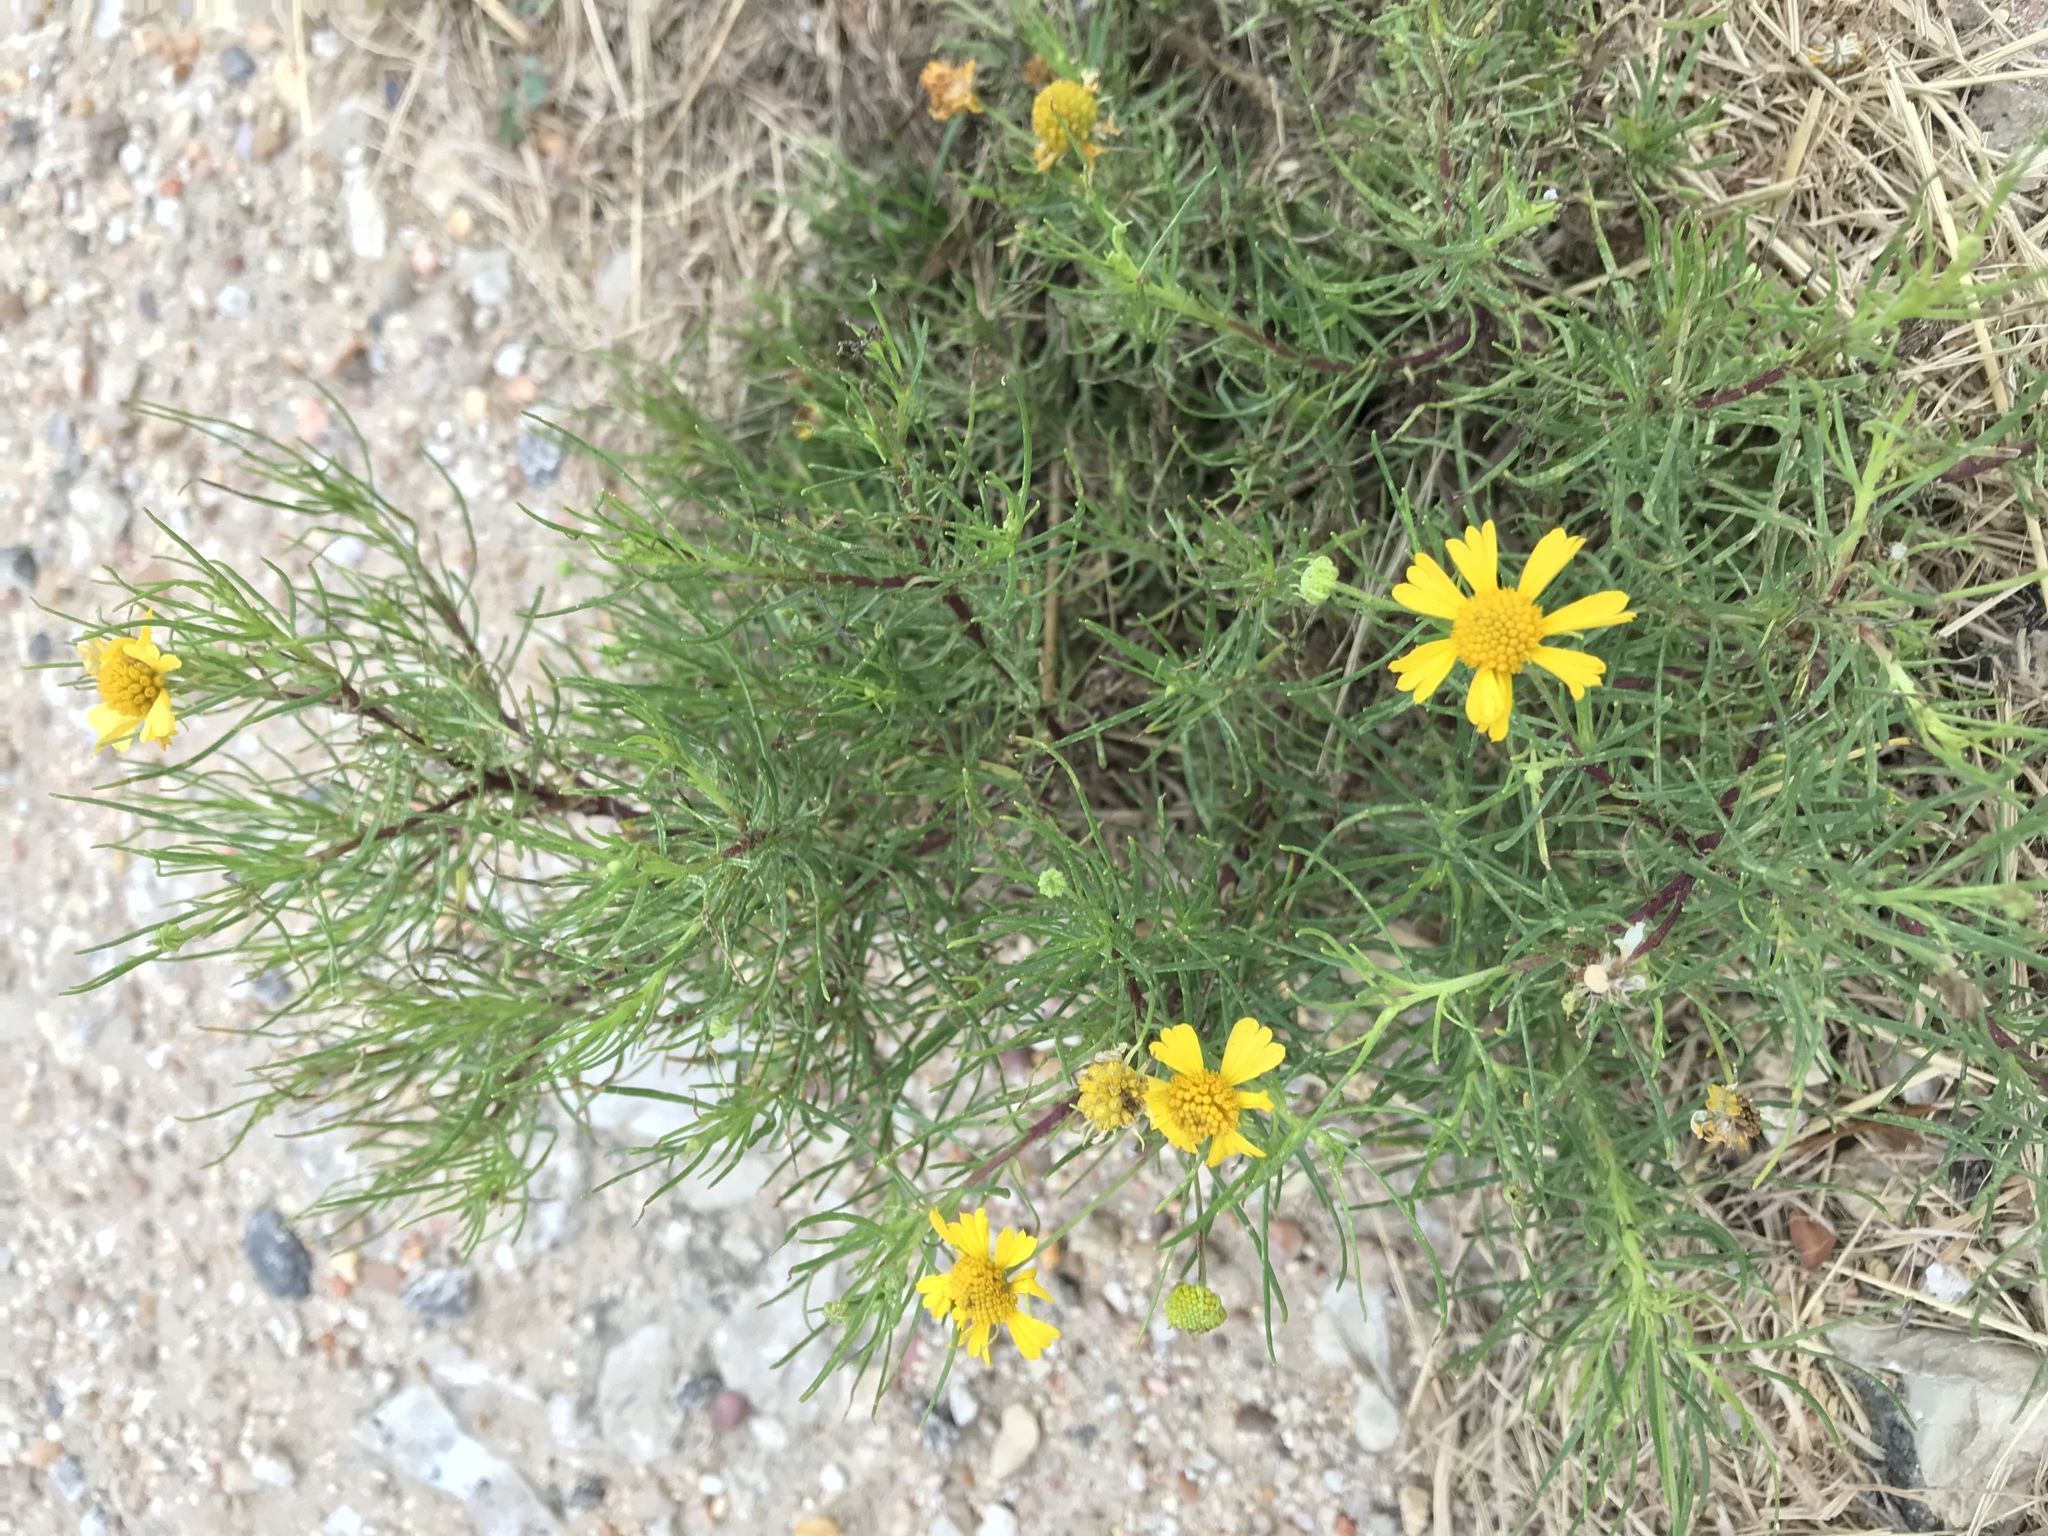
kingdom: Plantae
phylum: Tracheophyta
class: Magnoliopsida
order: Asterales
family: Asteraceae
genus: Helenium
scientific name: Helenium amarum
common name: Bitter sneezeweed
